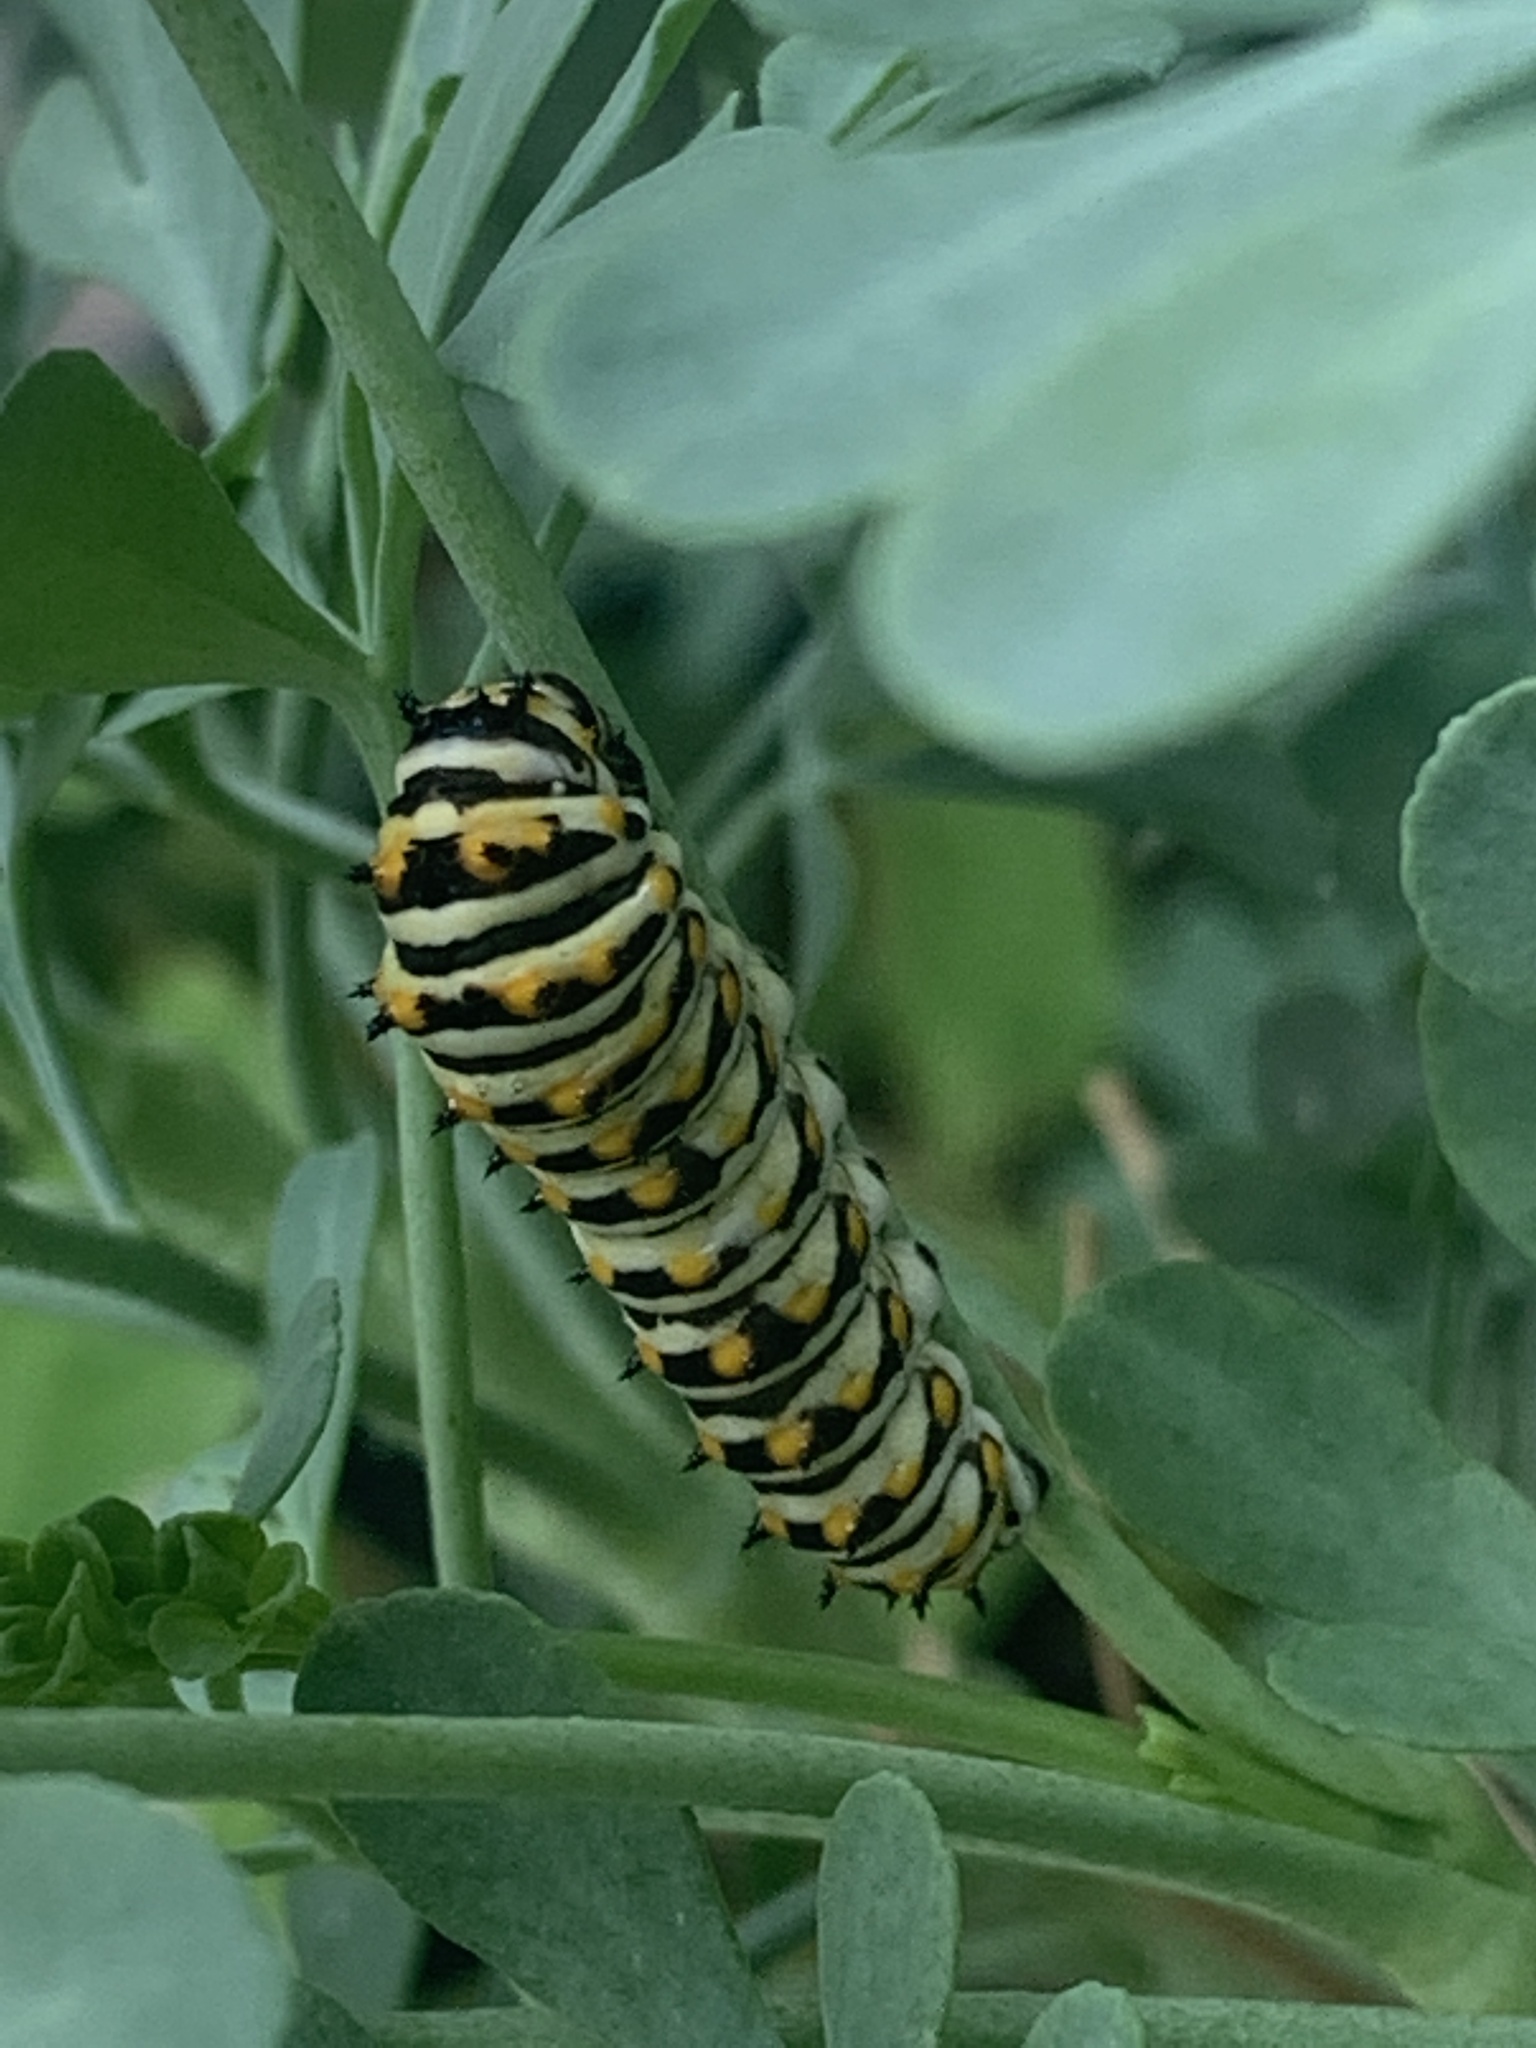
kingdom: Animalia
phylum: Arthropoda
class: Insecta
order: Lepidoptera
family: Papilionidae
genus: Papilio
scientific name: Papilio polyxenes
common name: Black swallowtail
